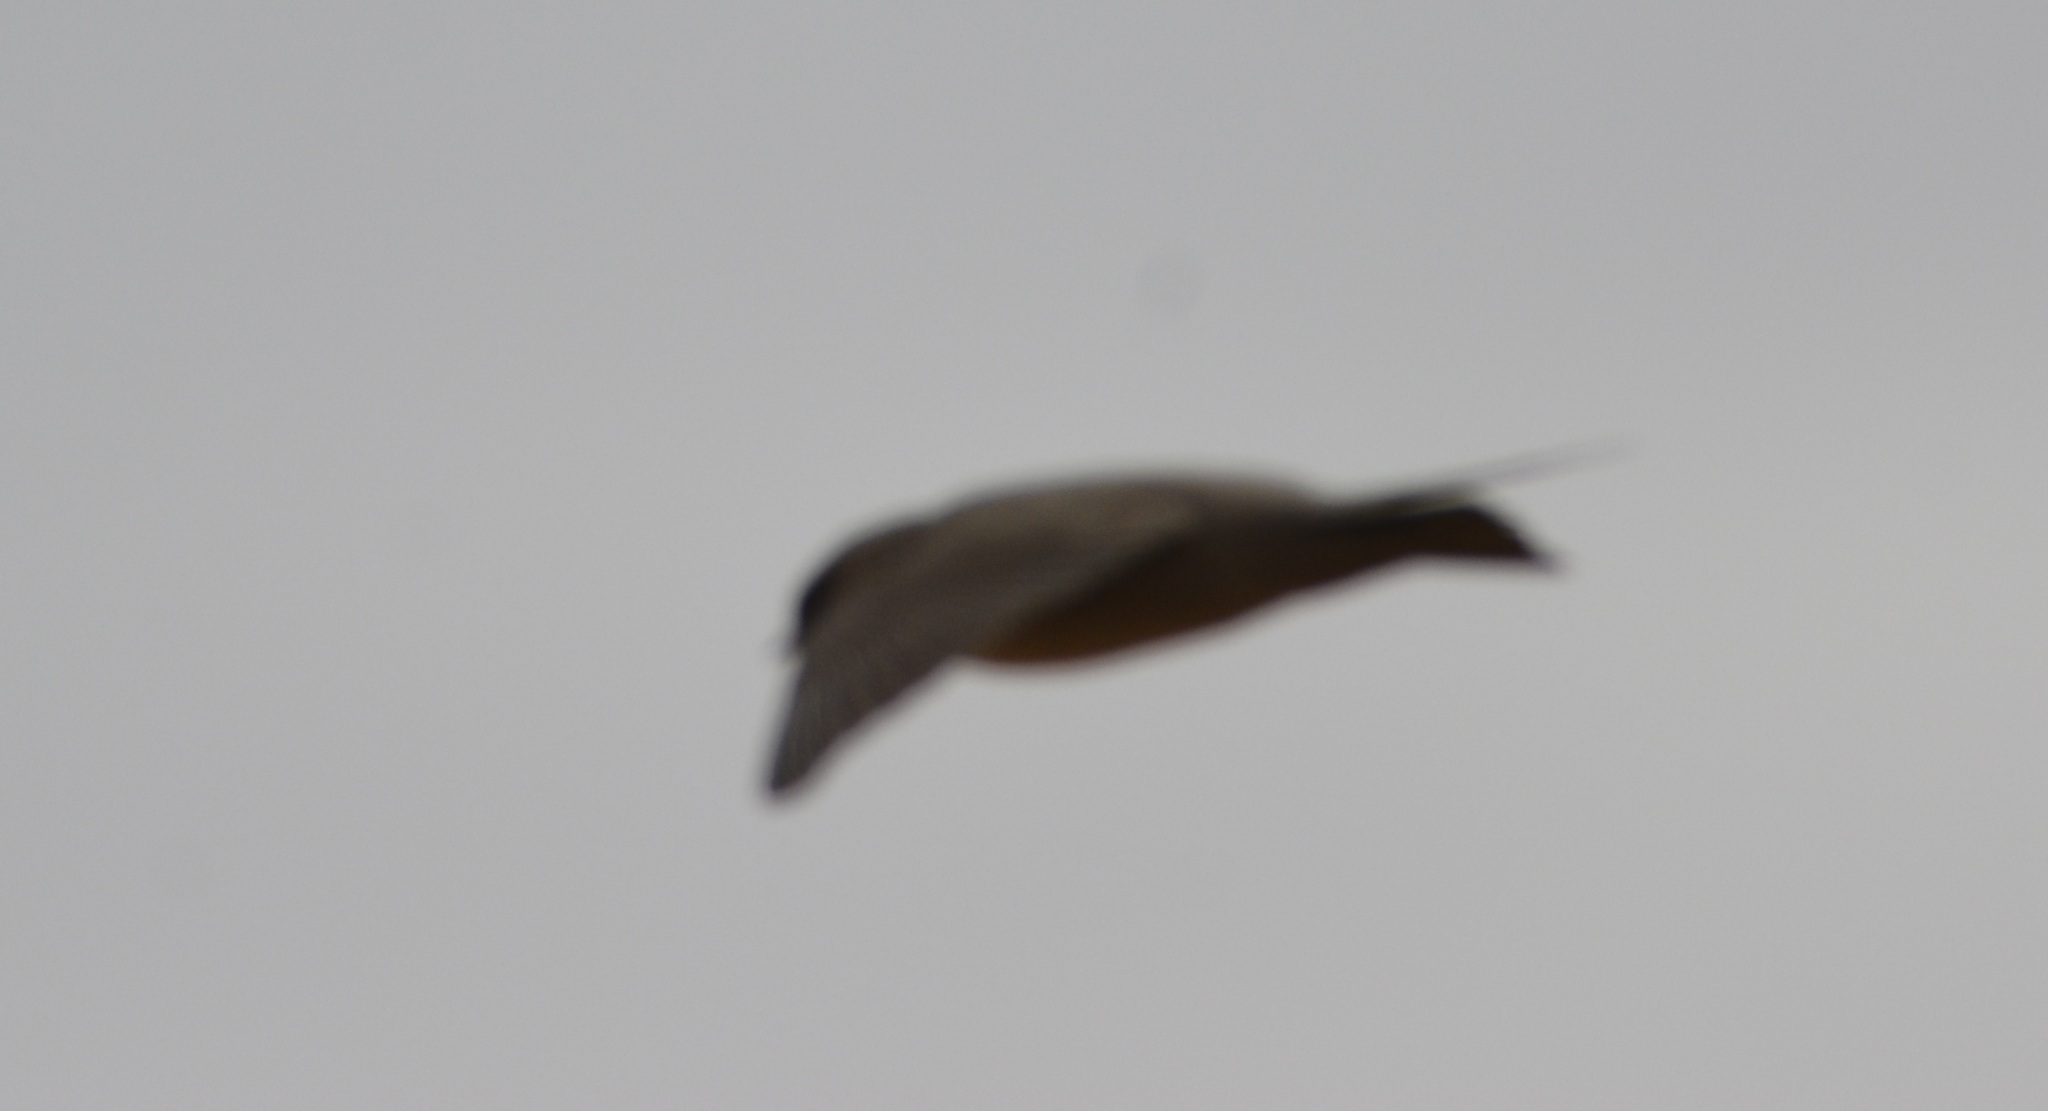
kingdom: Animalia
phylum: Chordata
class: Aves
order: Passeriformes
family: Hirundinidae
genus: Ptyonoprogne
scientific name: Ptyonoprogne fuligula
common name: Rock martin
